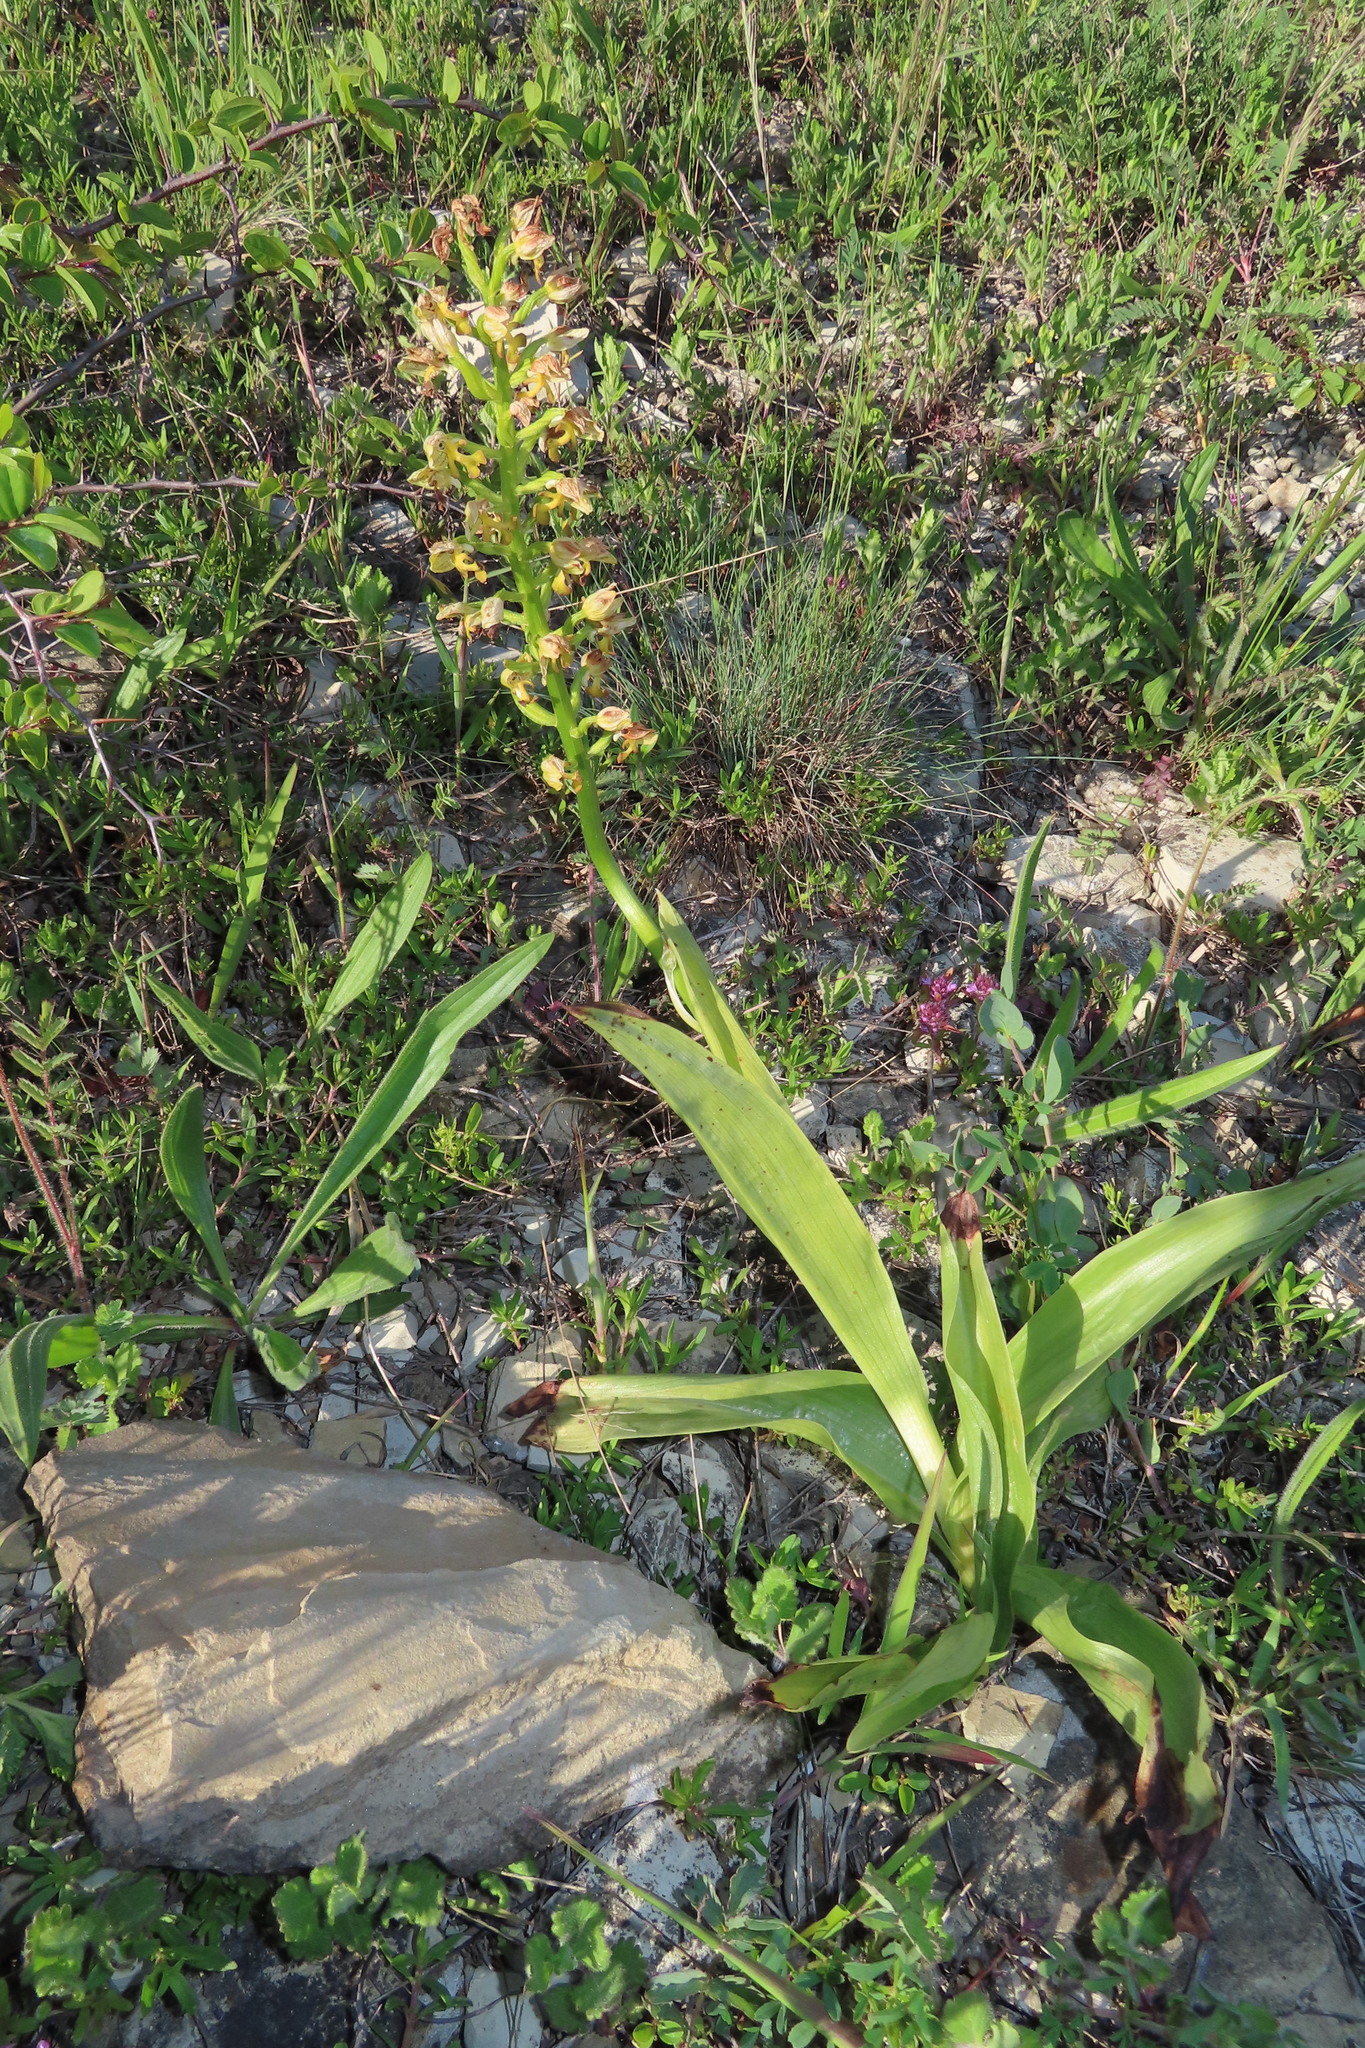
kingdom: Plantae
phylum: Tracheophyta
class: Liliopsida
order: Asparagales
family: Orchidaceae
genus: Orchis
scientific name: Orchis punctulata
